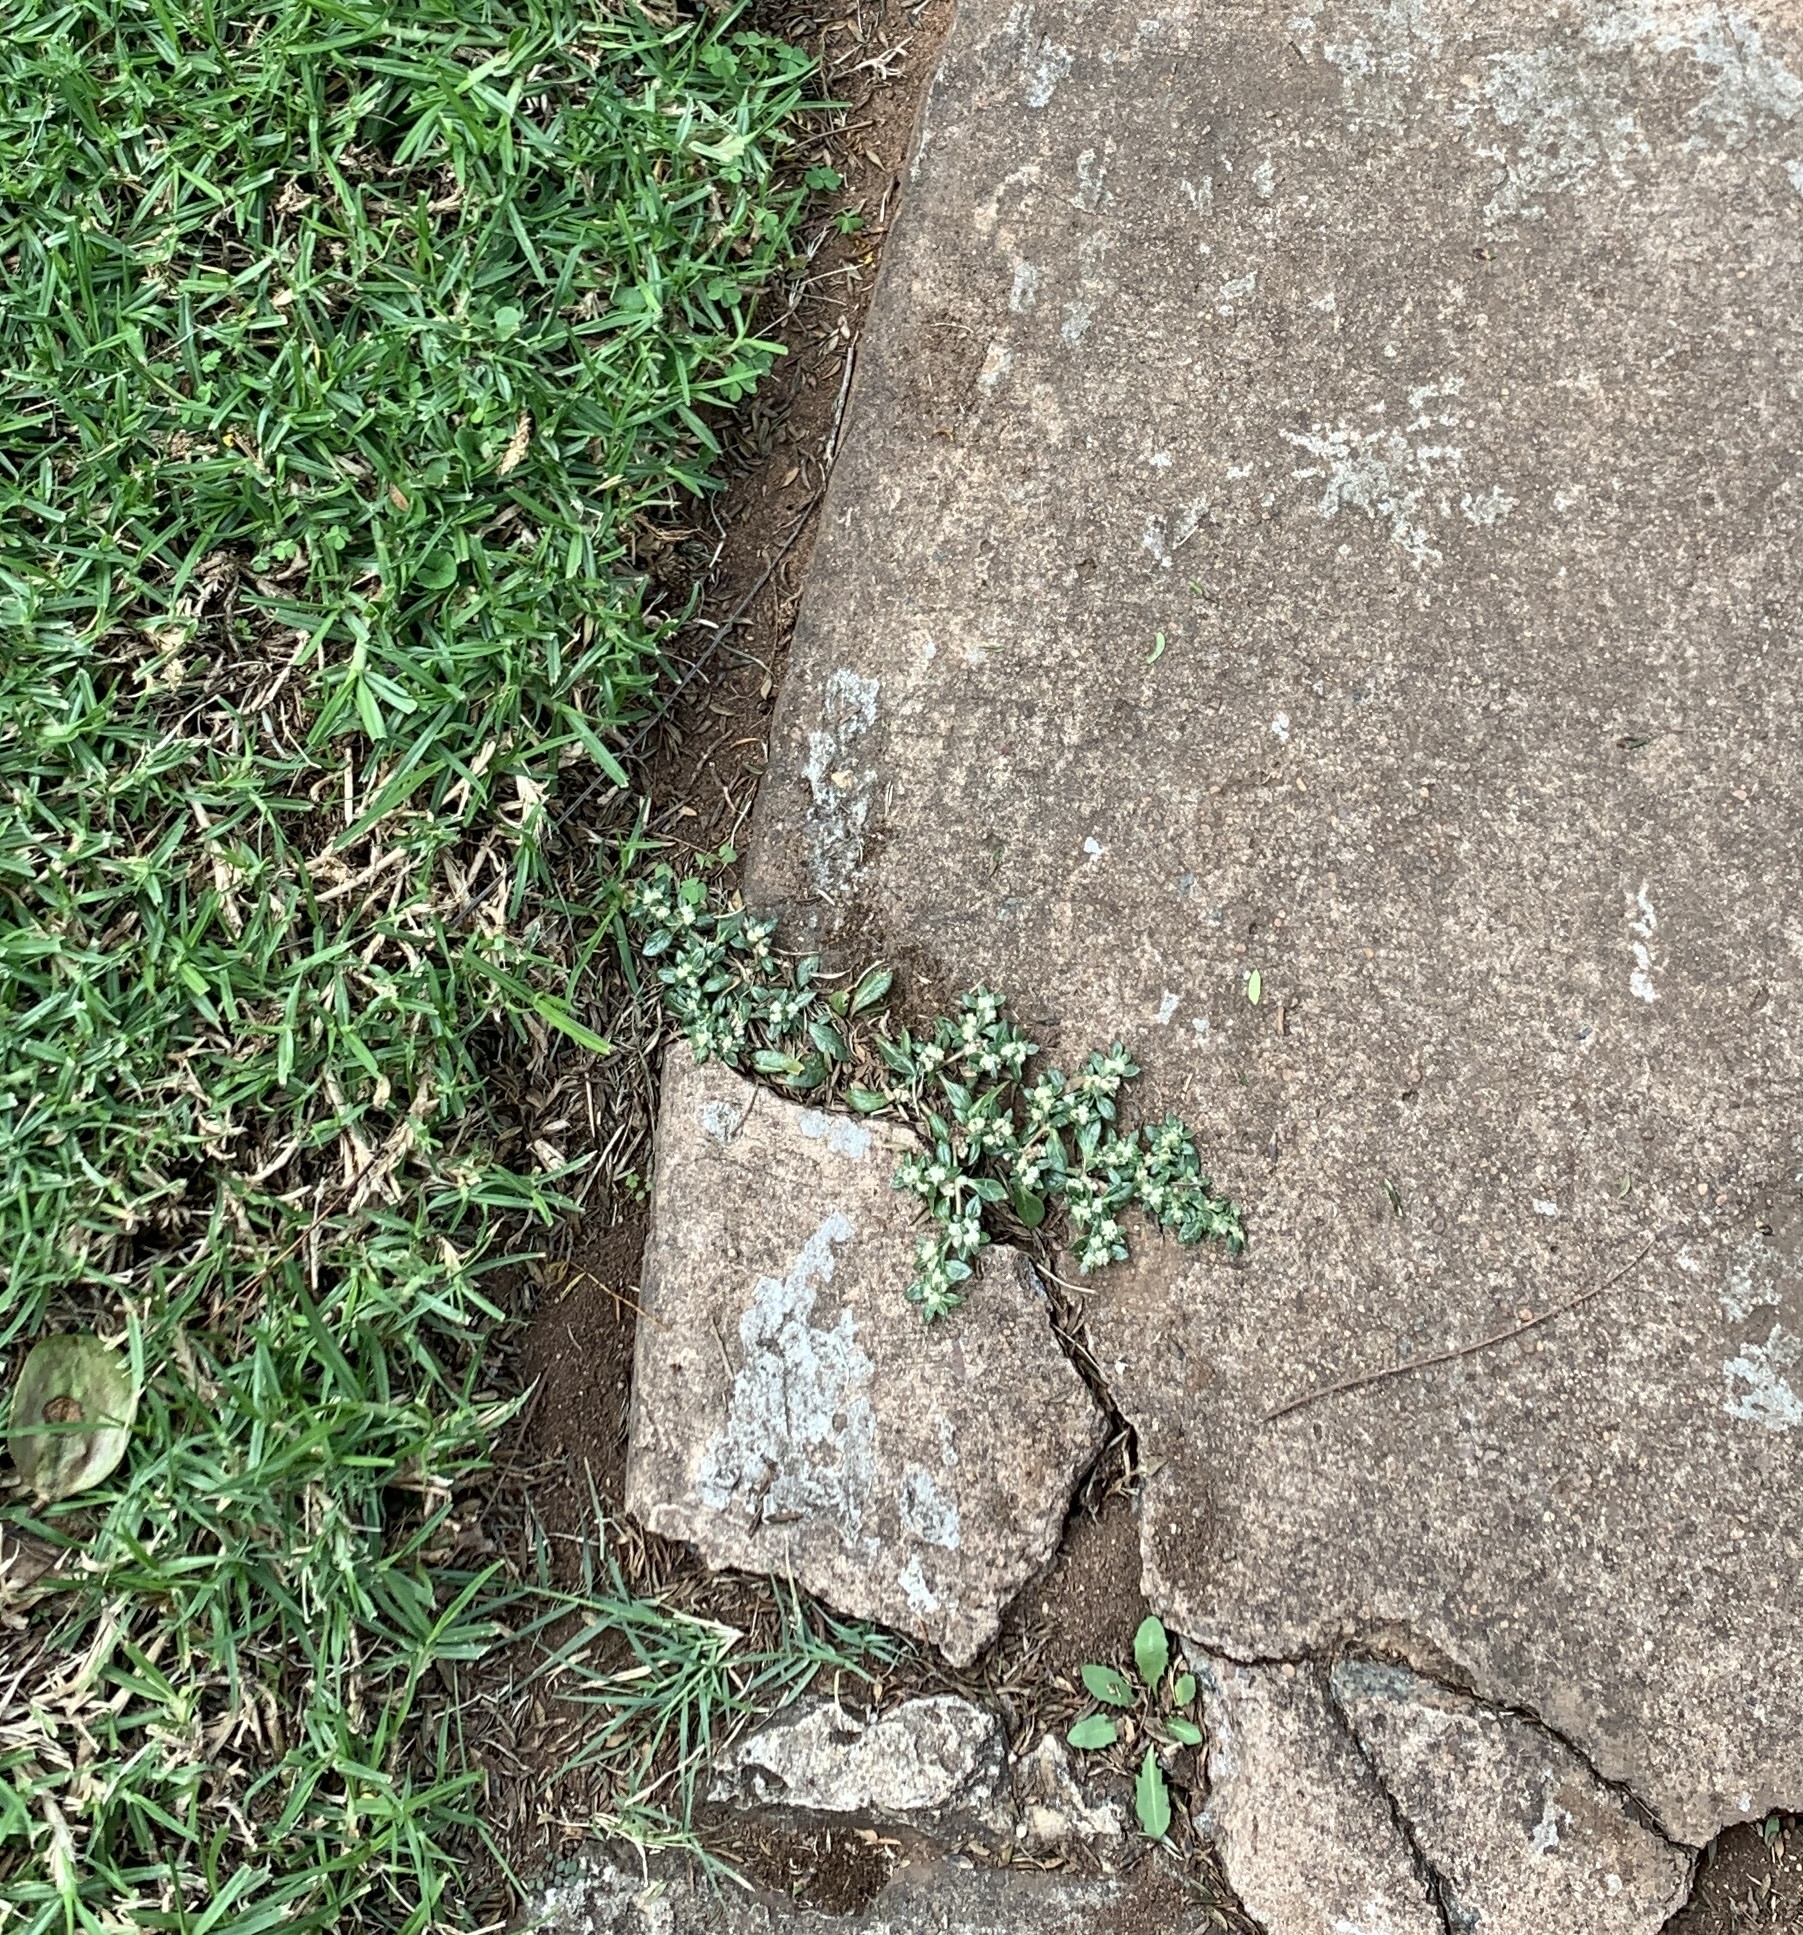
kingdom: Plantae
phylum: Tracheophyta
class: Magnoliopsida
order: Caryophyllales
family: Amaranthaceae
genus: Guilleminea
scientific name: Guilleminea densa
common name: Small matweed
